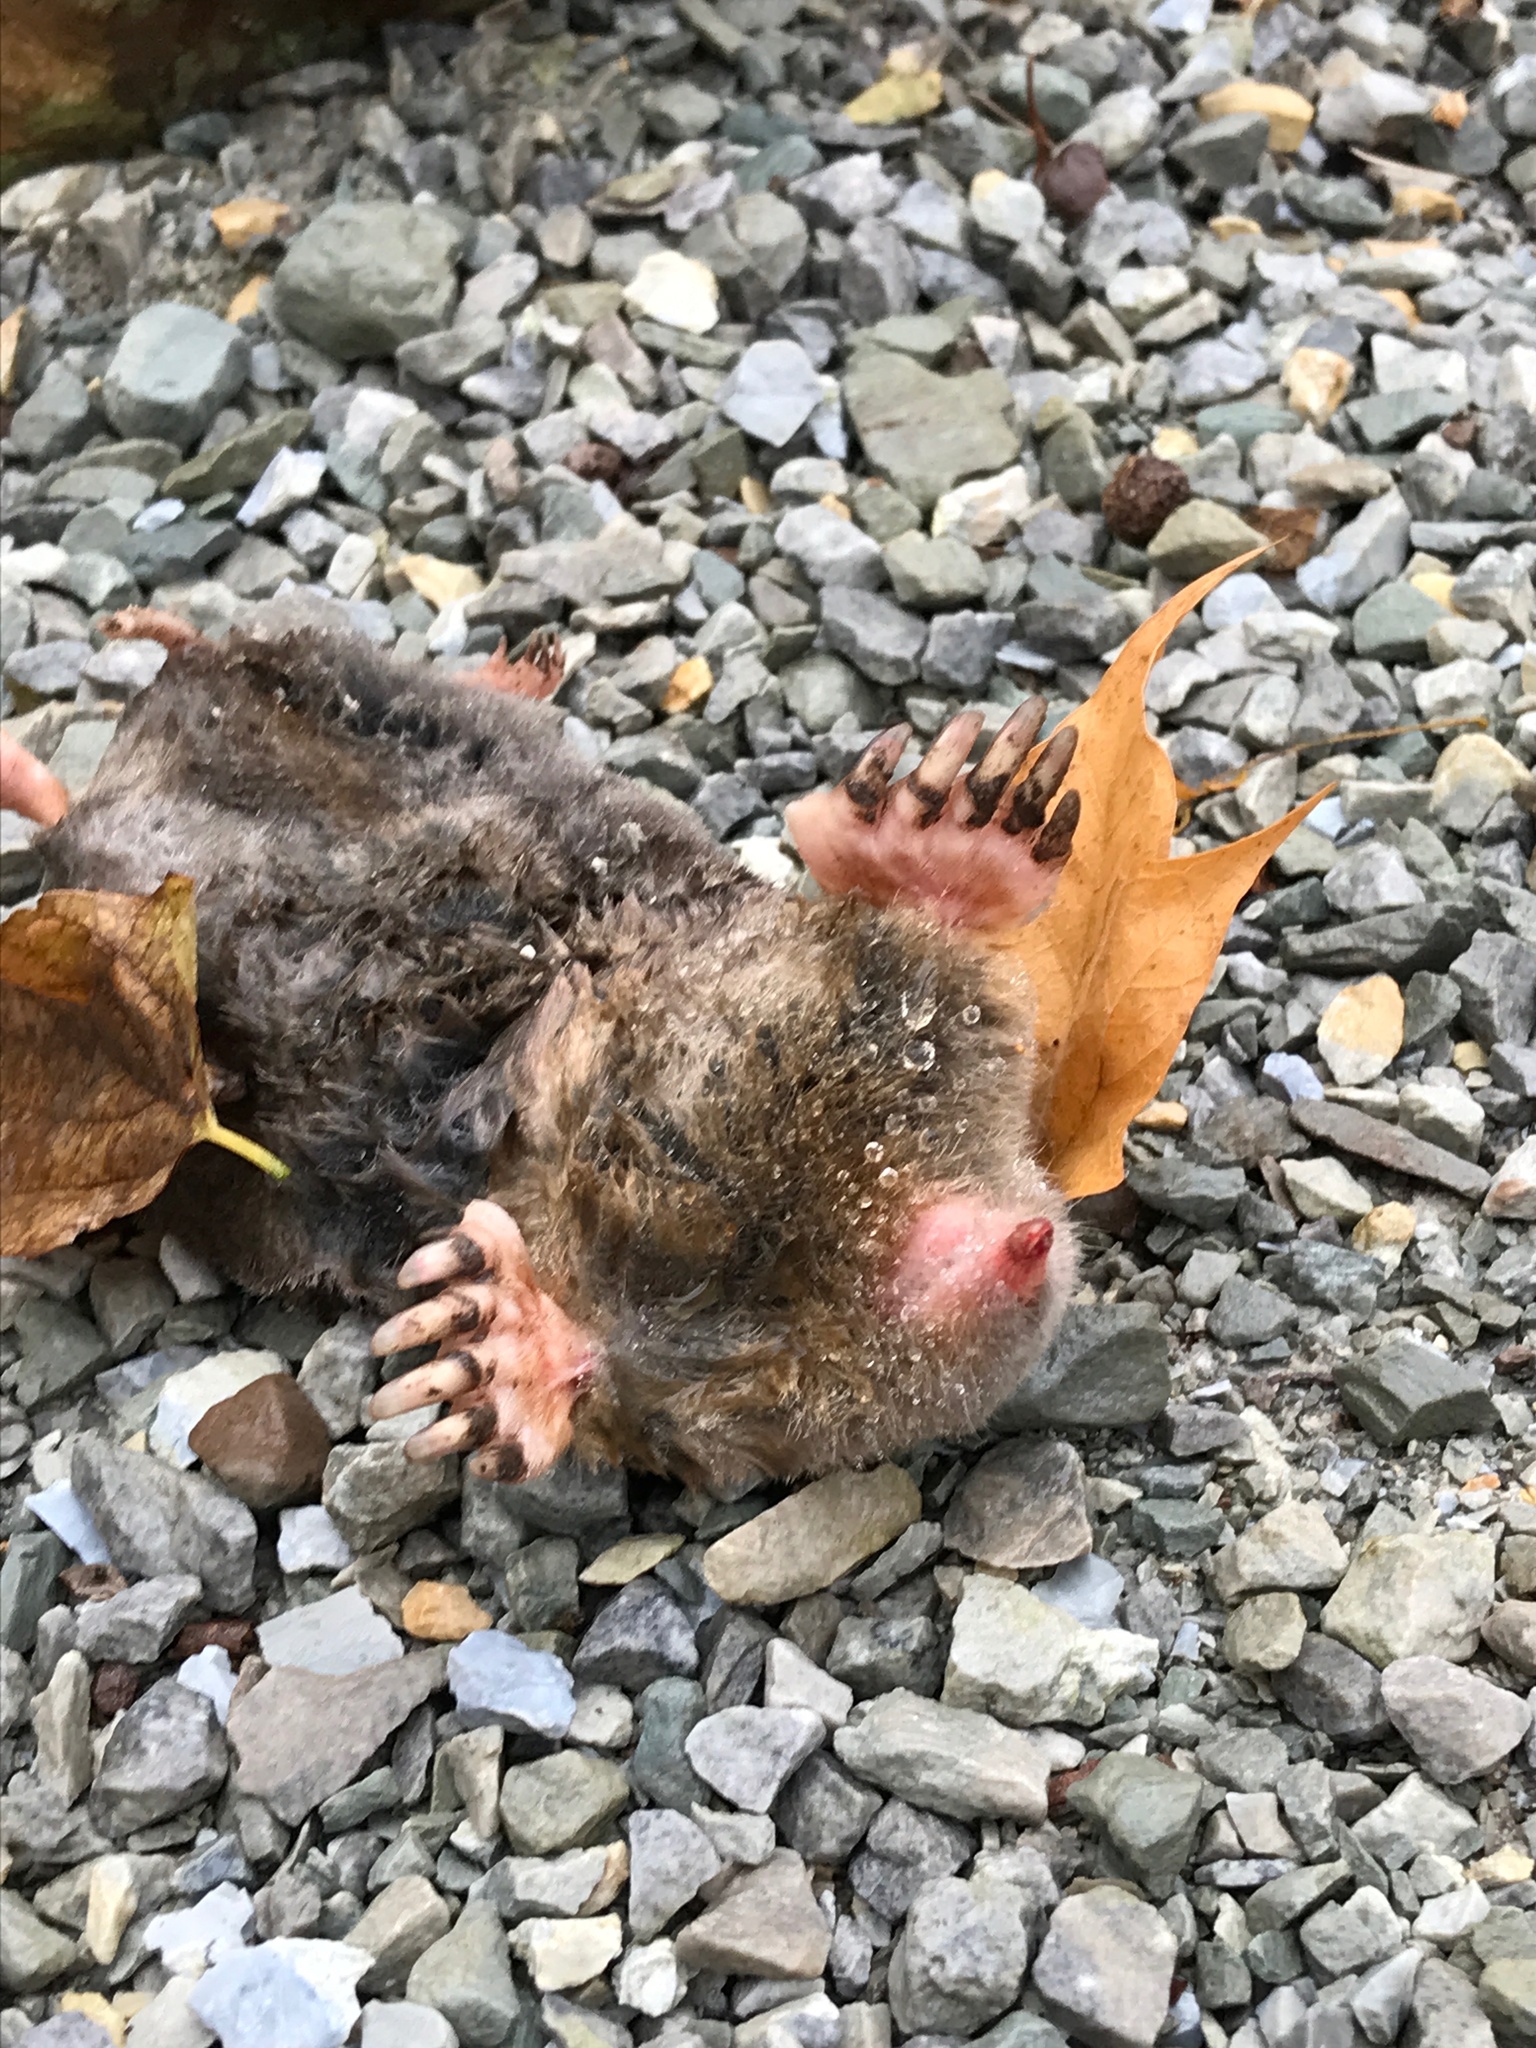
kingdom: Animalia
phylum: Chordata
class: Mammalia
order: Soricomorpha
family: Talpidae
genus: Scalopus
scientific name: Scalopus aquaticus
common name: Eastern mole
